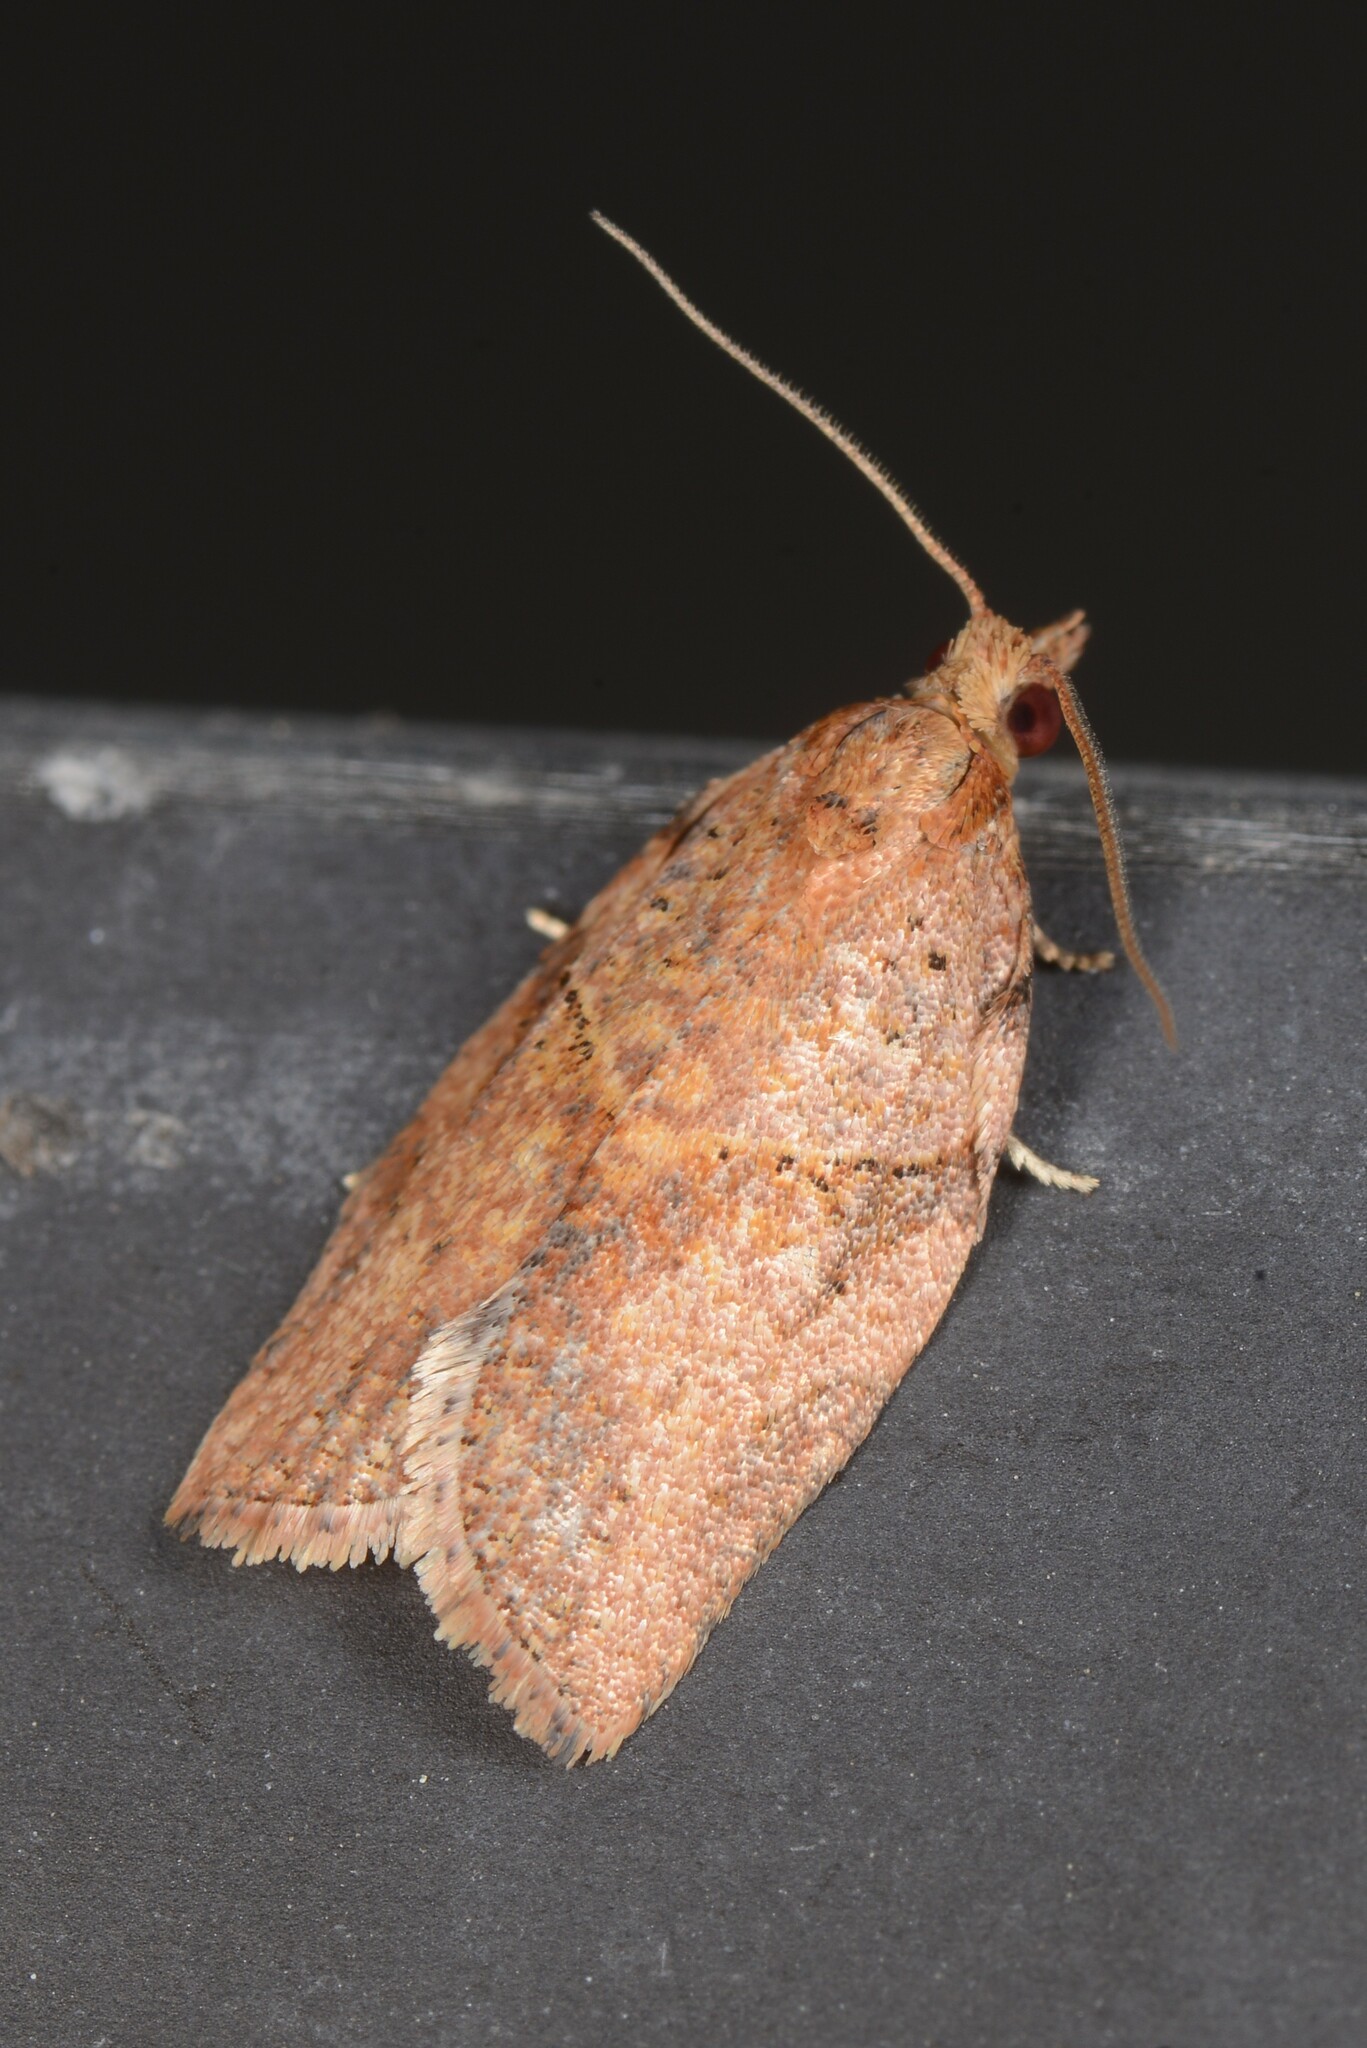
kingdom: Animalia
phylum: Arthropoda
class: Insecta
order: Lepidoptera
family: Tortricidae
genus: Epiphyas
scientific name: Epiphyas postvittana
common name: Light brown apple moth
